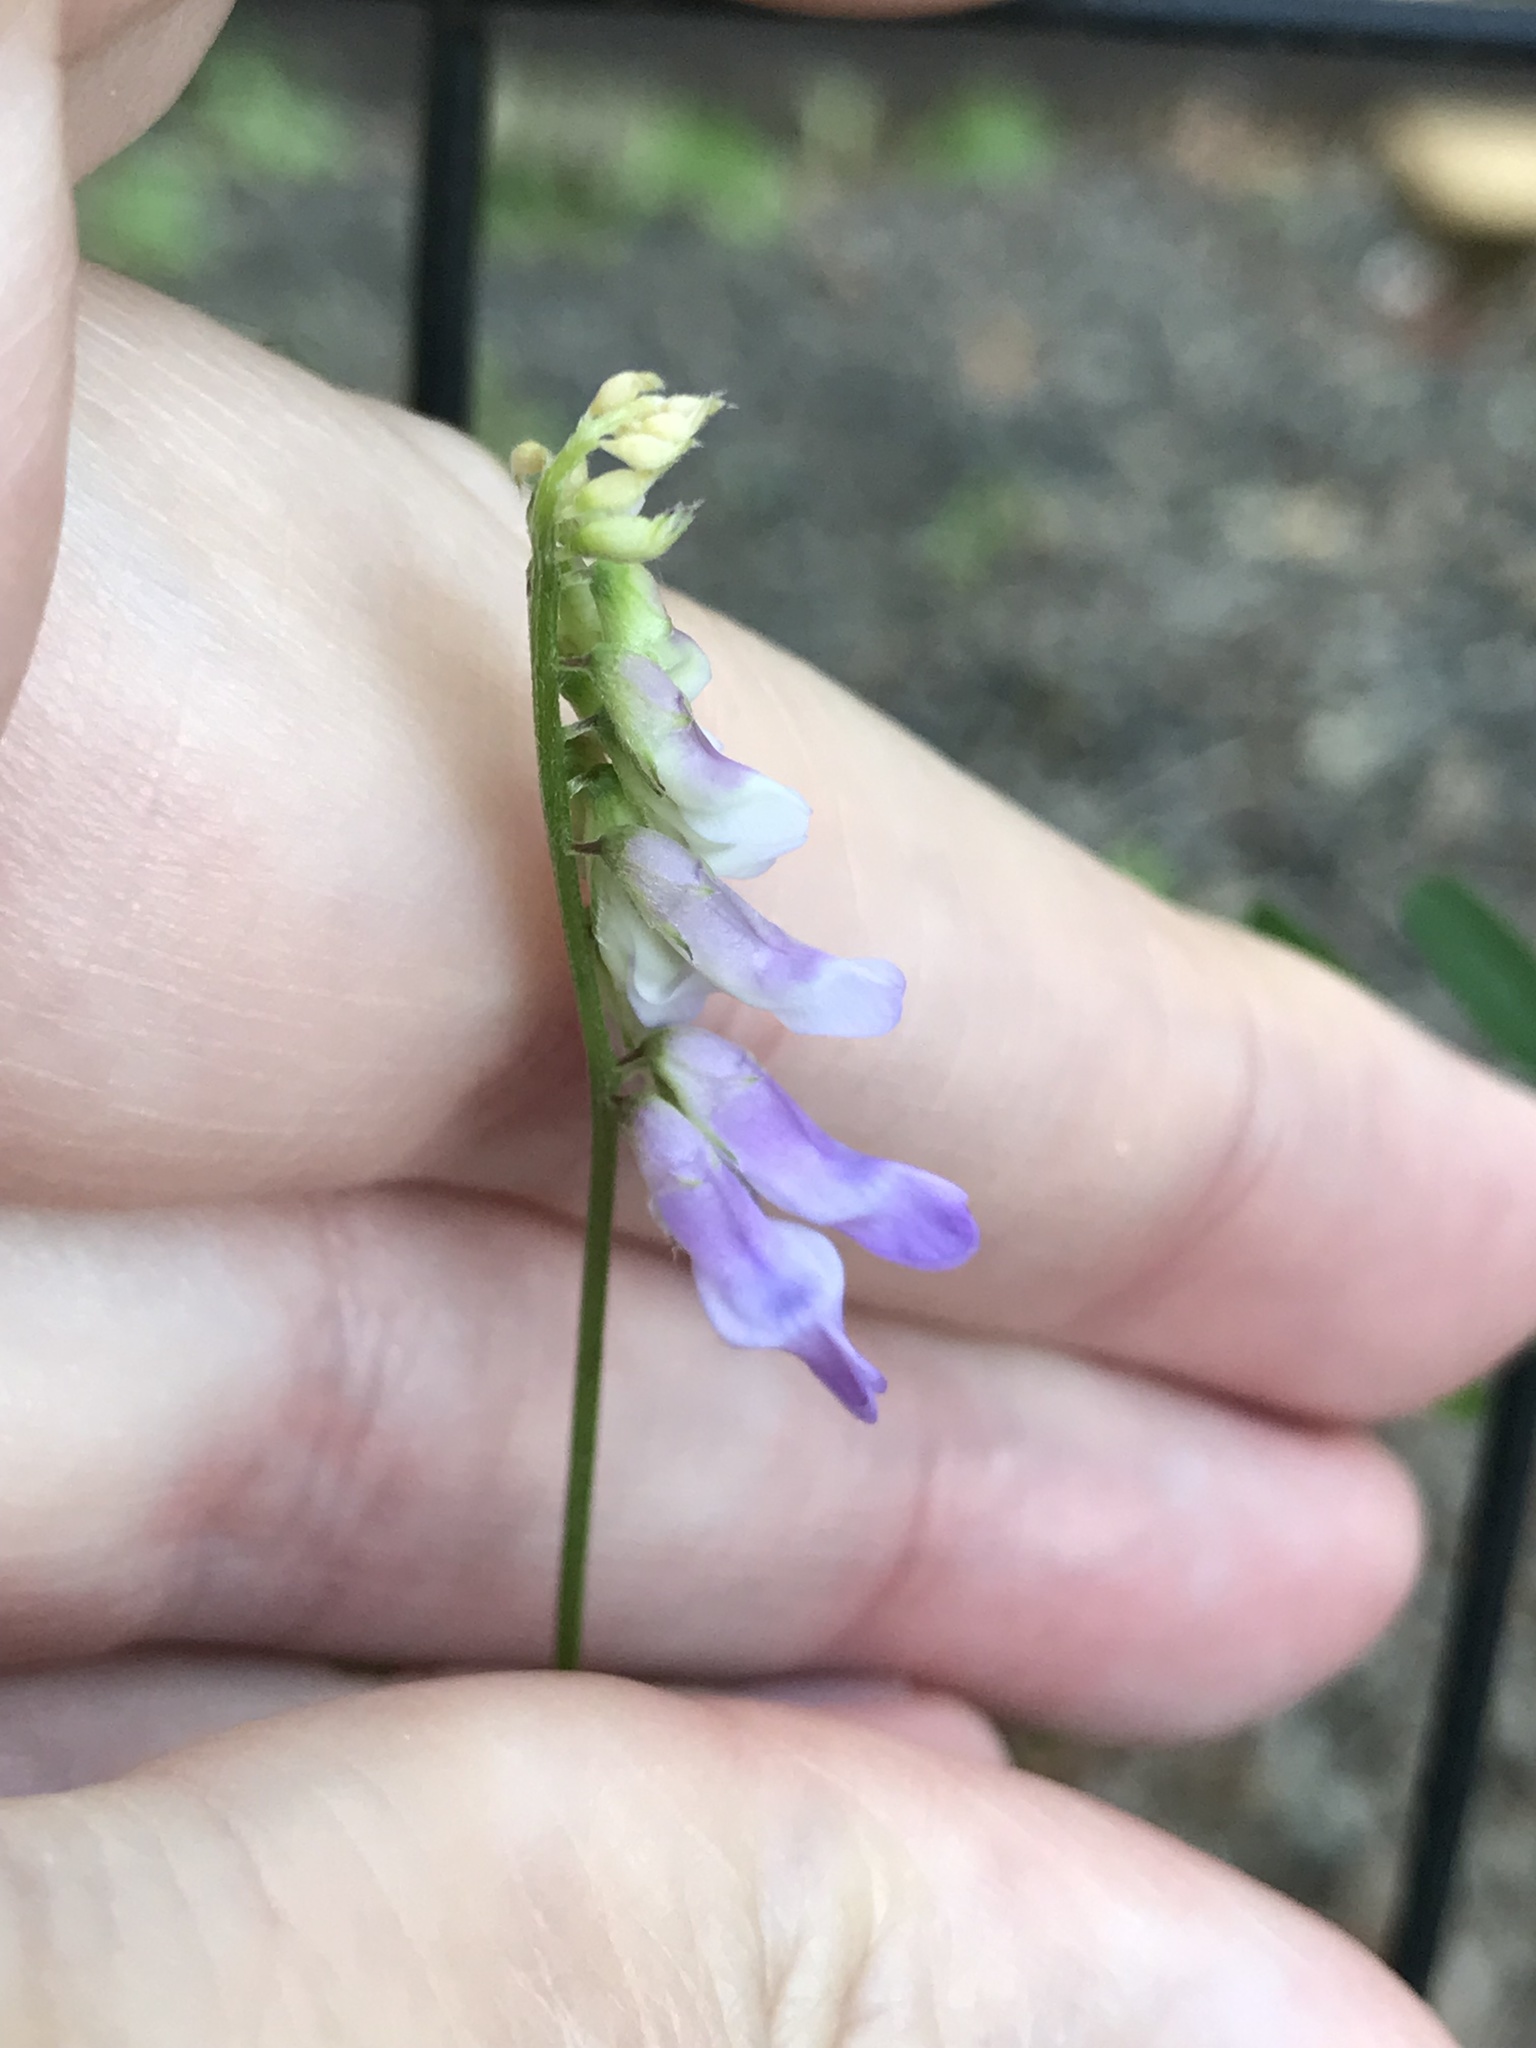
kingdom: Plantae
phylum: Tracheophyta
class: Magnoliopsida
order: Fabales
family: Fabaceae
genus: Vicia
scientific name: Vicia cracca
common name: Bird vetch
